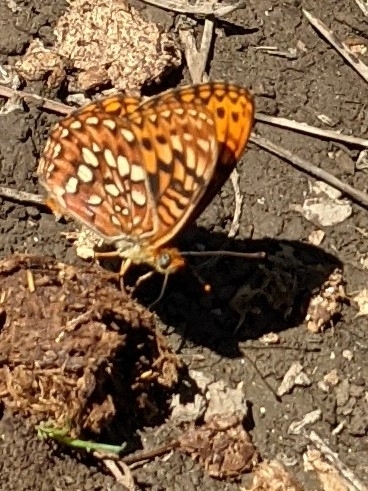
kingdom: Animalia
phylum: Arthropoda
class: Insecta
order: Lepidoptera
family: Nymphalidae
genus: Speyeria
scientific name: Speyeria hydaspe
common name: Hydaspe fritillary
